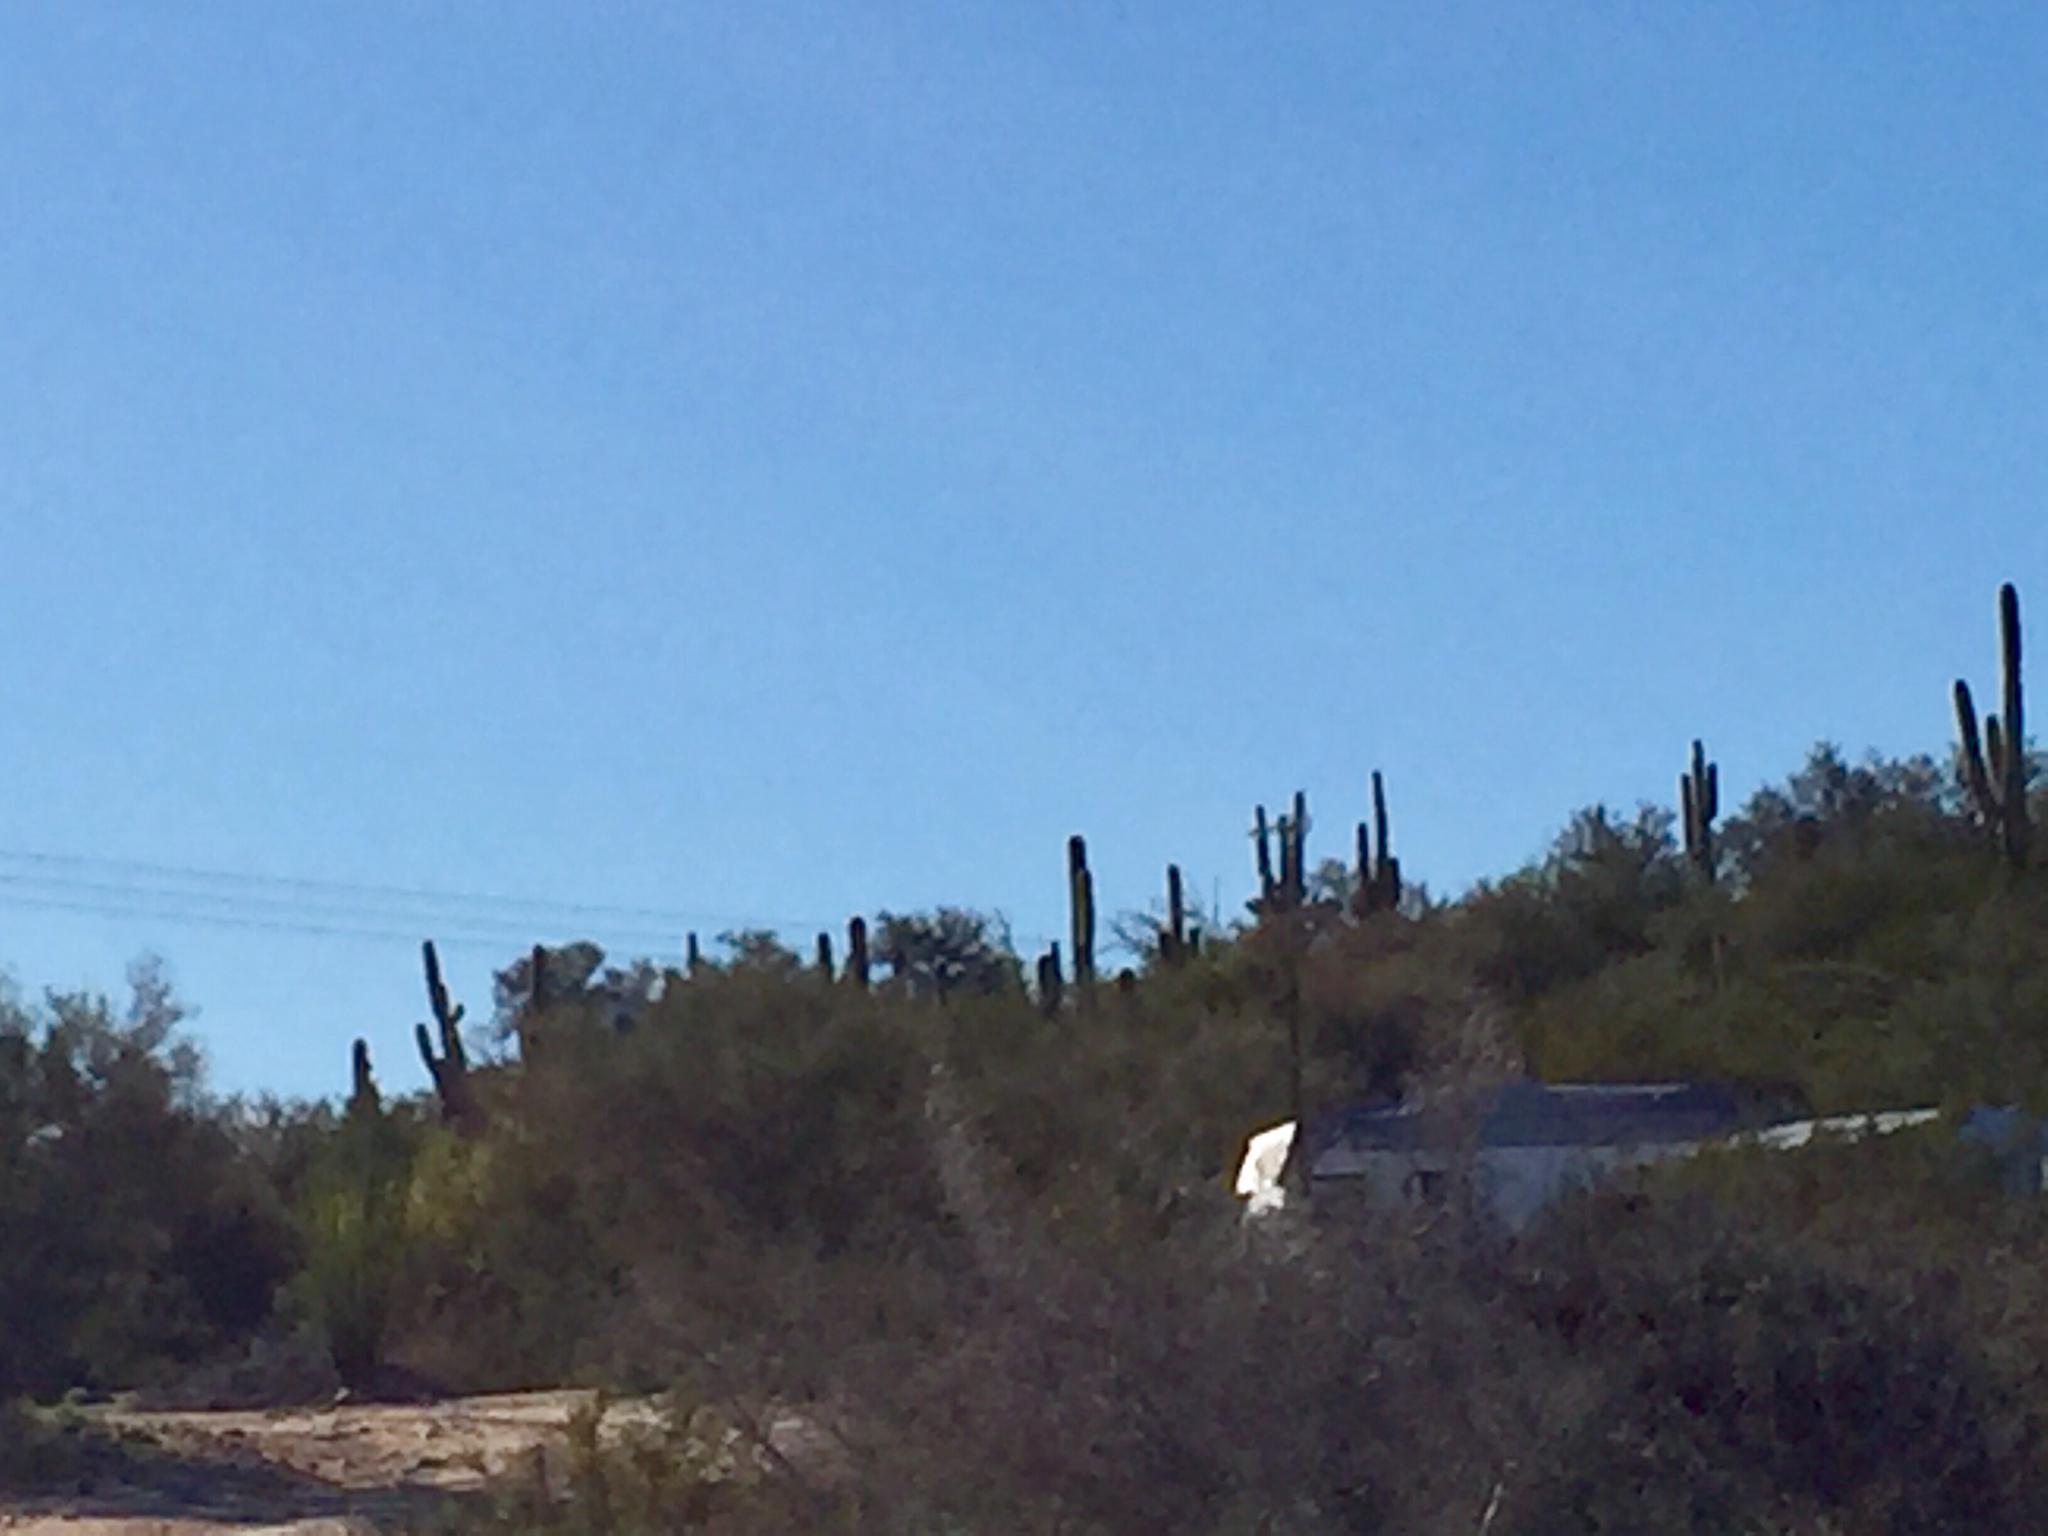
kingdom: Plantae
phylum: Tracheophyta
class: Magnoliopsida
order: Caryophyllales
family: Cactaceae
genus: Carnegiea
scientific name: Carnegiea gigantea
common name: Saguaro
